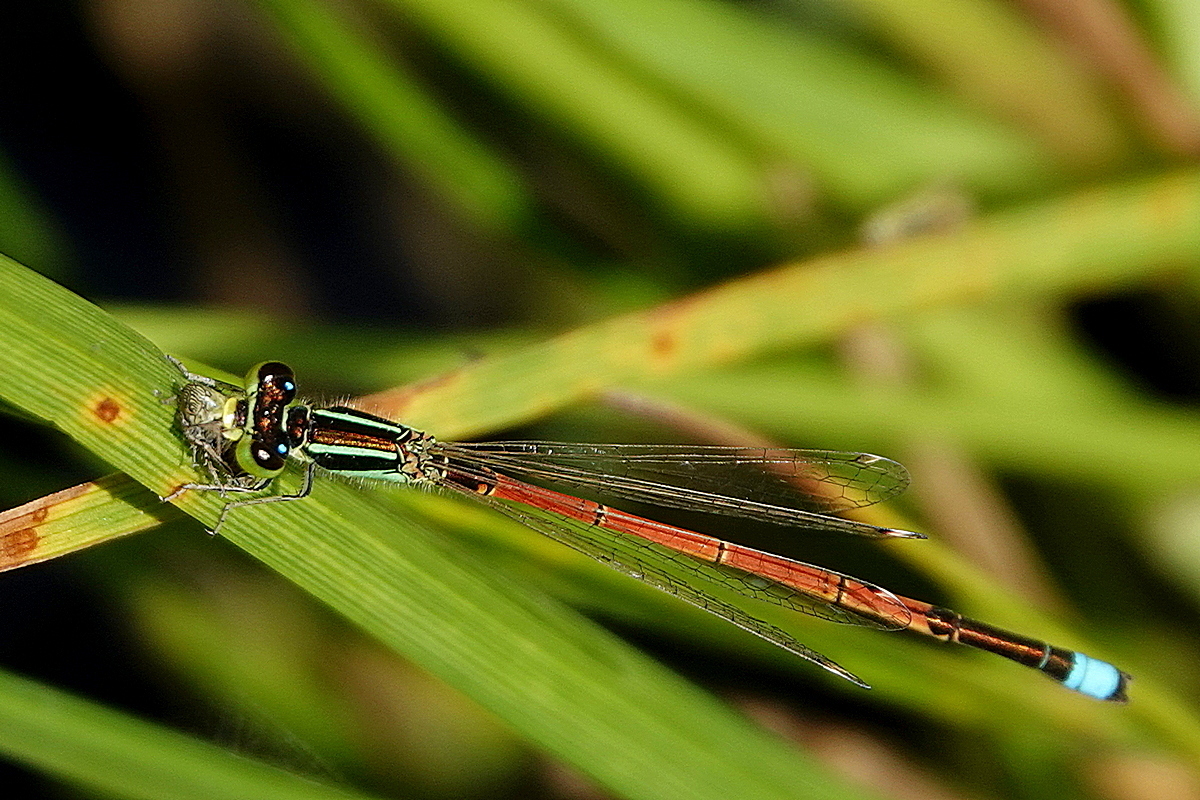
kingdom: Animalia
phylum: Arthropoda
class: Insecta
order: Odonata
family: Coenagrionidae
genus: Ischnura
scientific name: Ischnura aurora
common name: Gossamer damselfly
